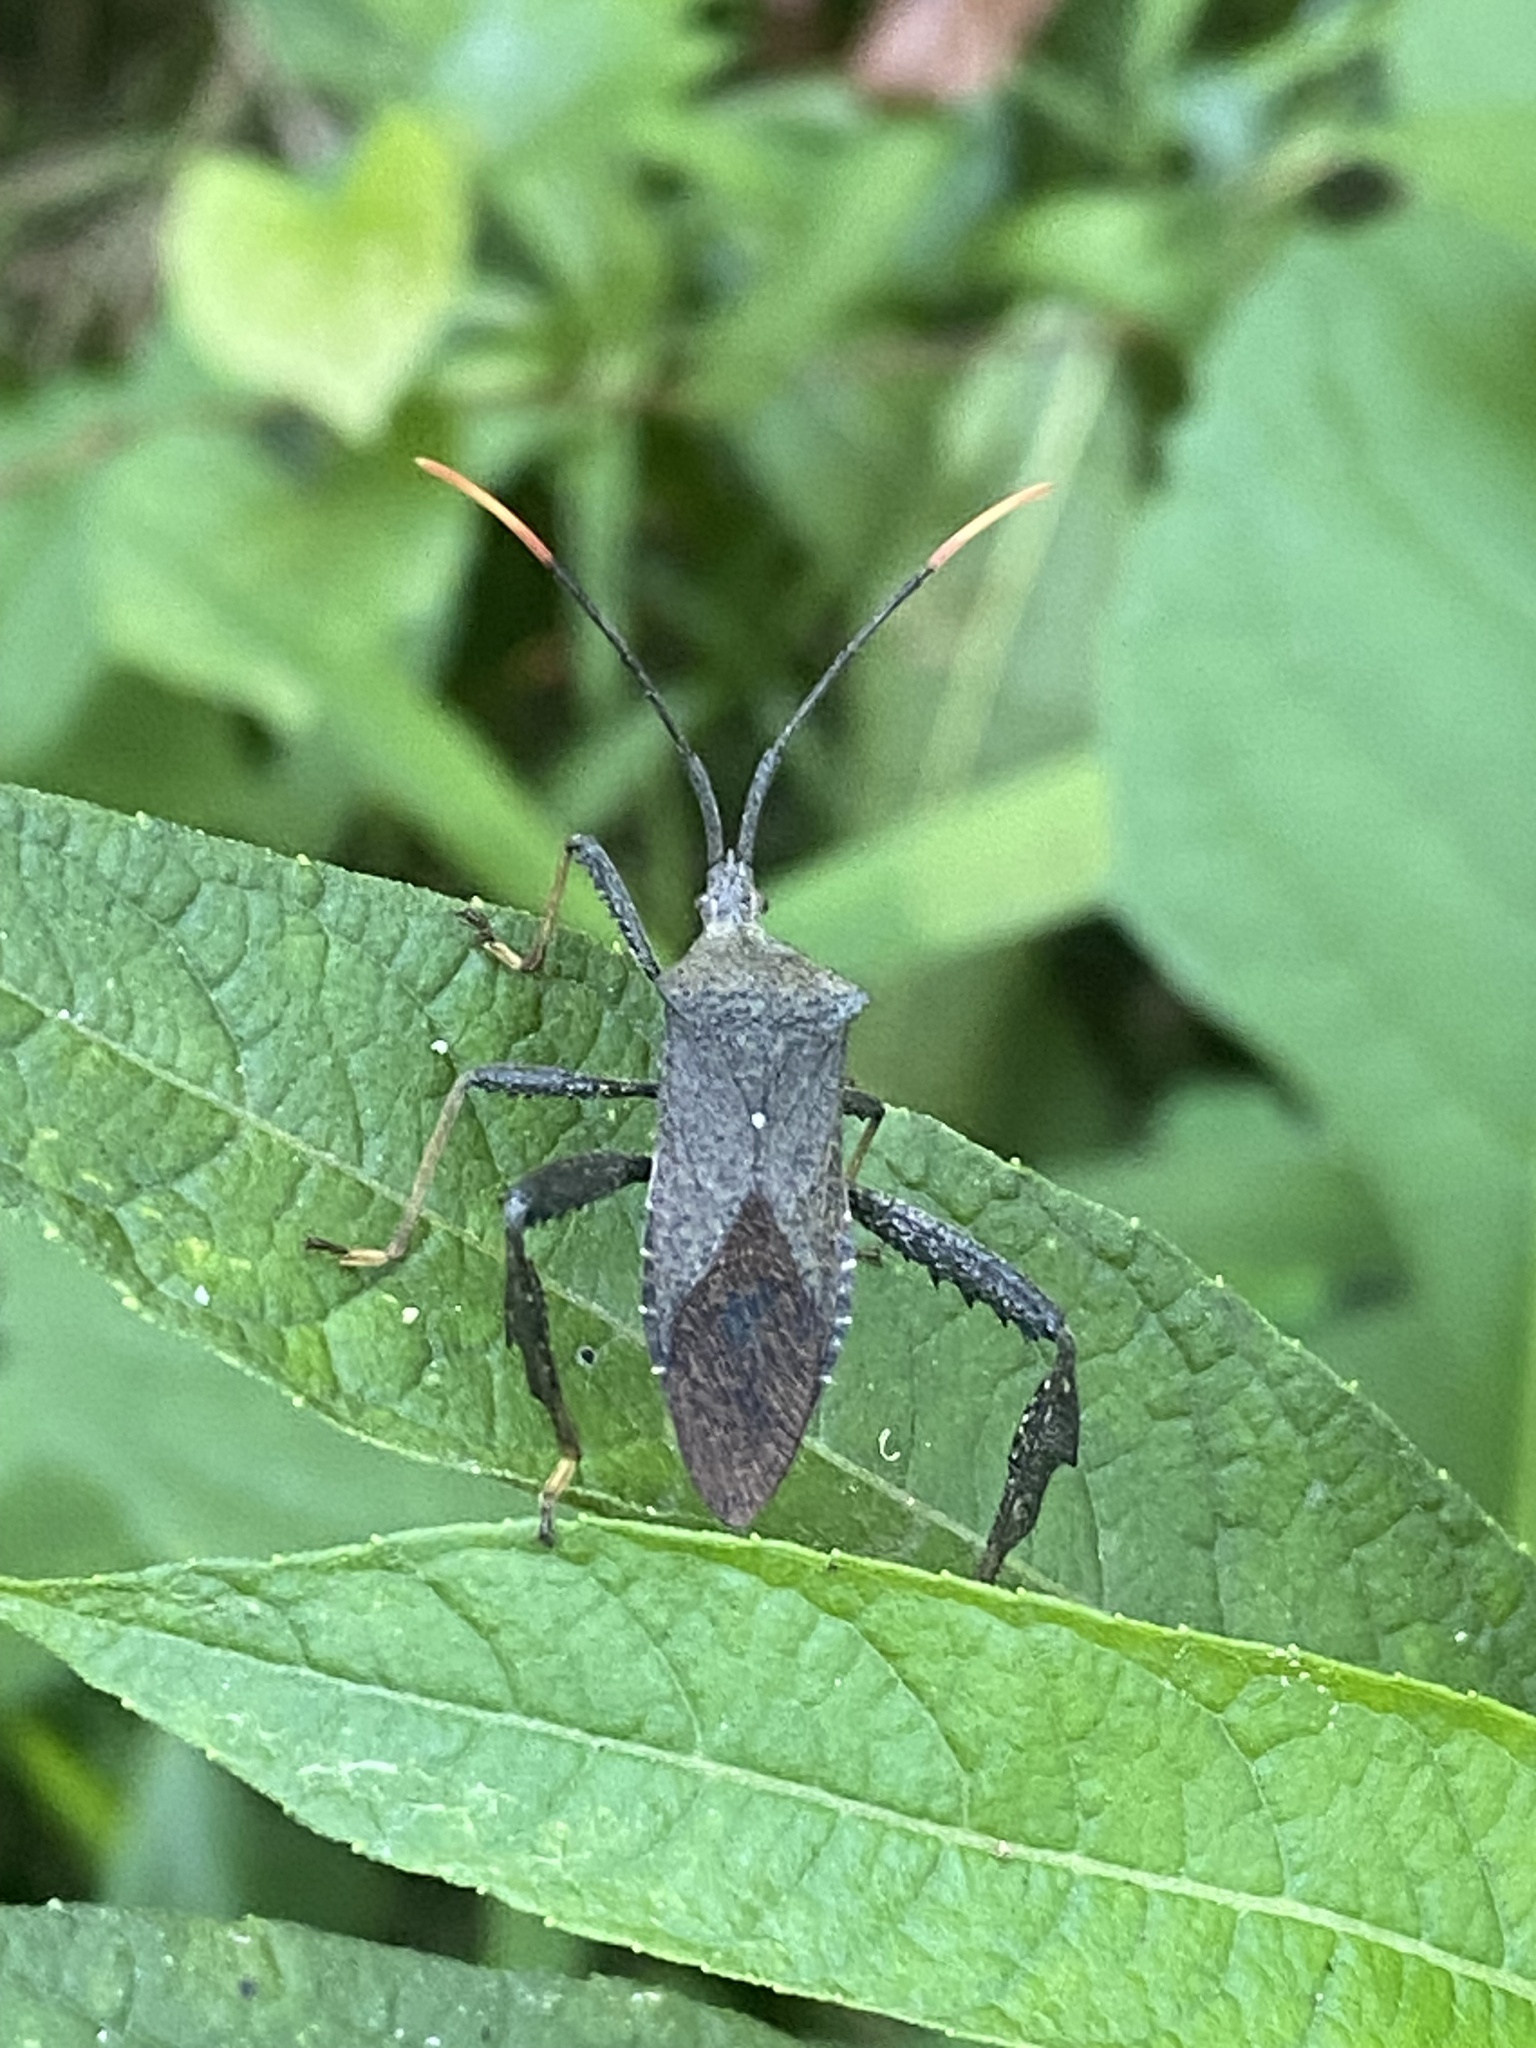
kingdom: Animalia
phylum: Arthropoda
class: Insecta
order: Hemiptera
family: Coreidae
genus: Acanthocephala
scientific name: Acanthocephala terminalis
